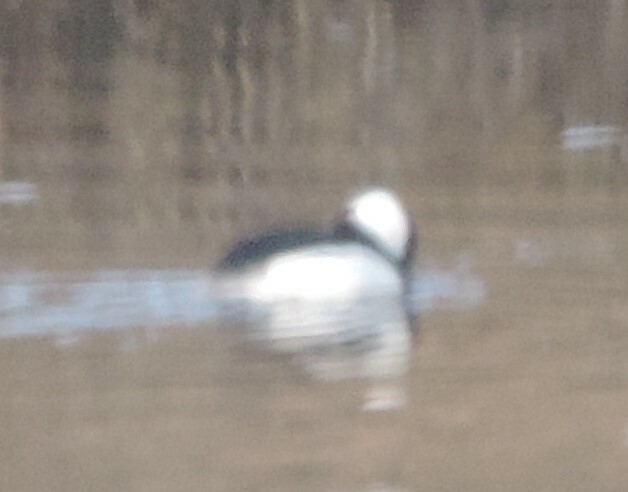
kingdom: Animalia
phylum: Chordata
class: Aves
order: Anseriformes
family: Anatidae
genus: Bucephala
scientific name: Bucephala albeola
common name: Bufflehead
